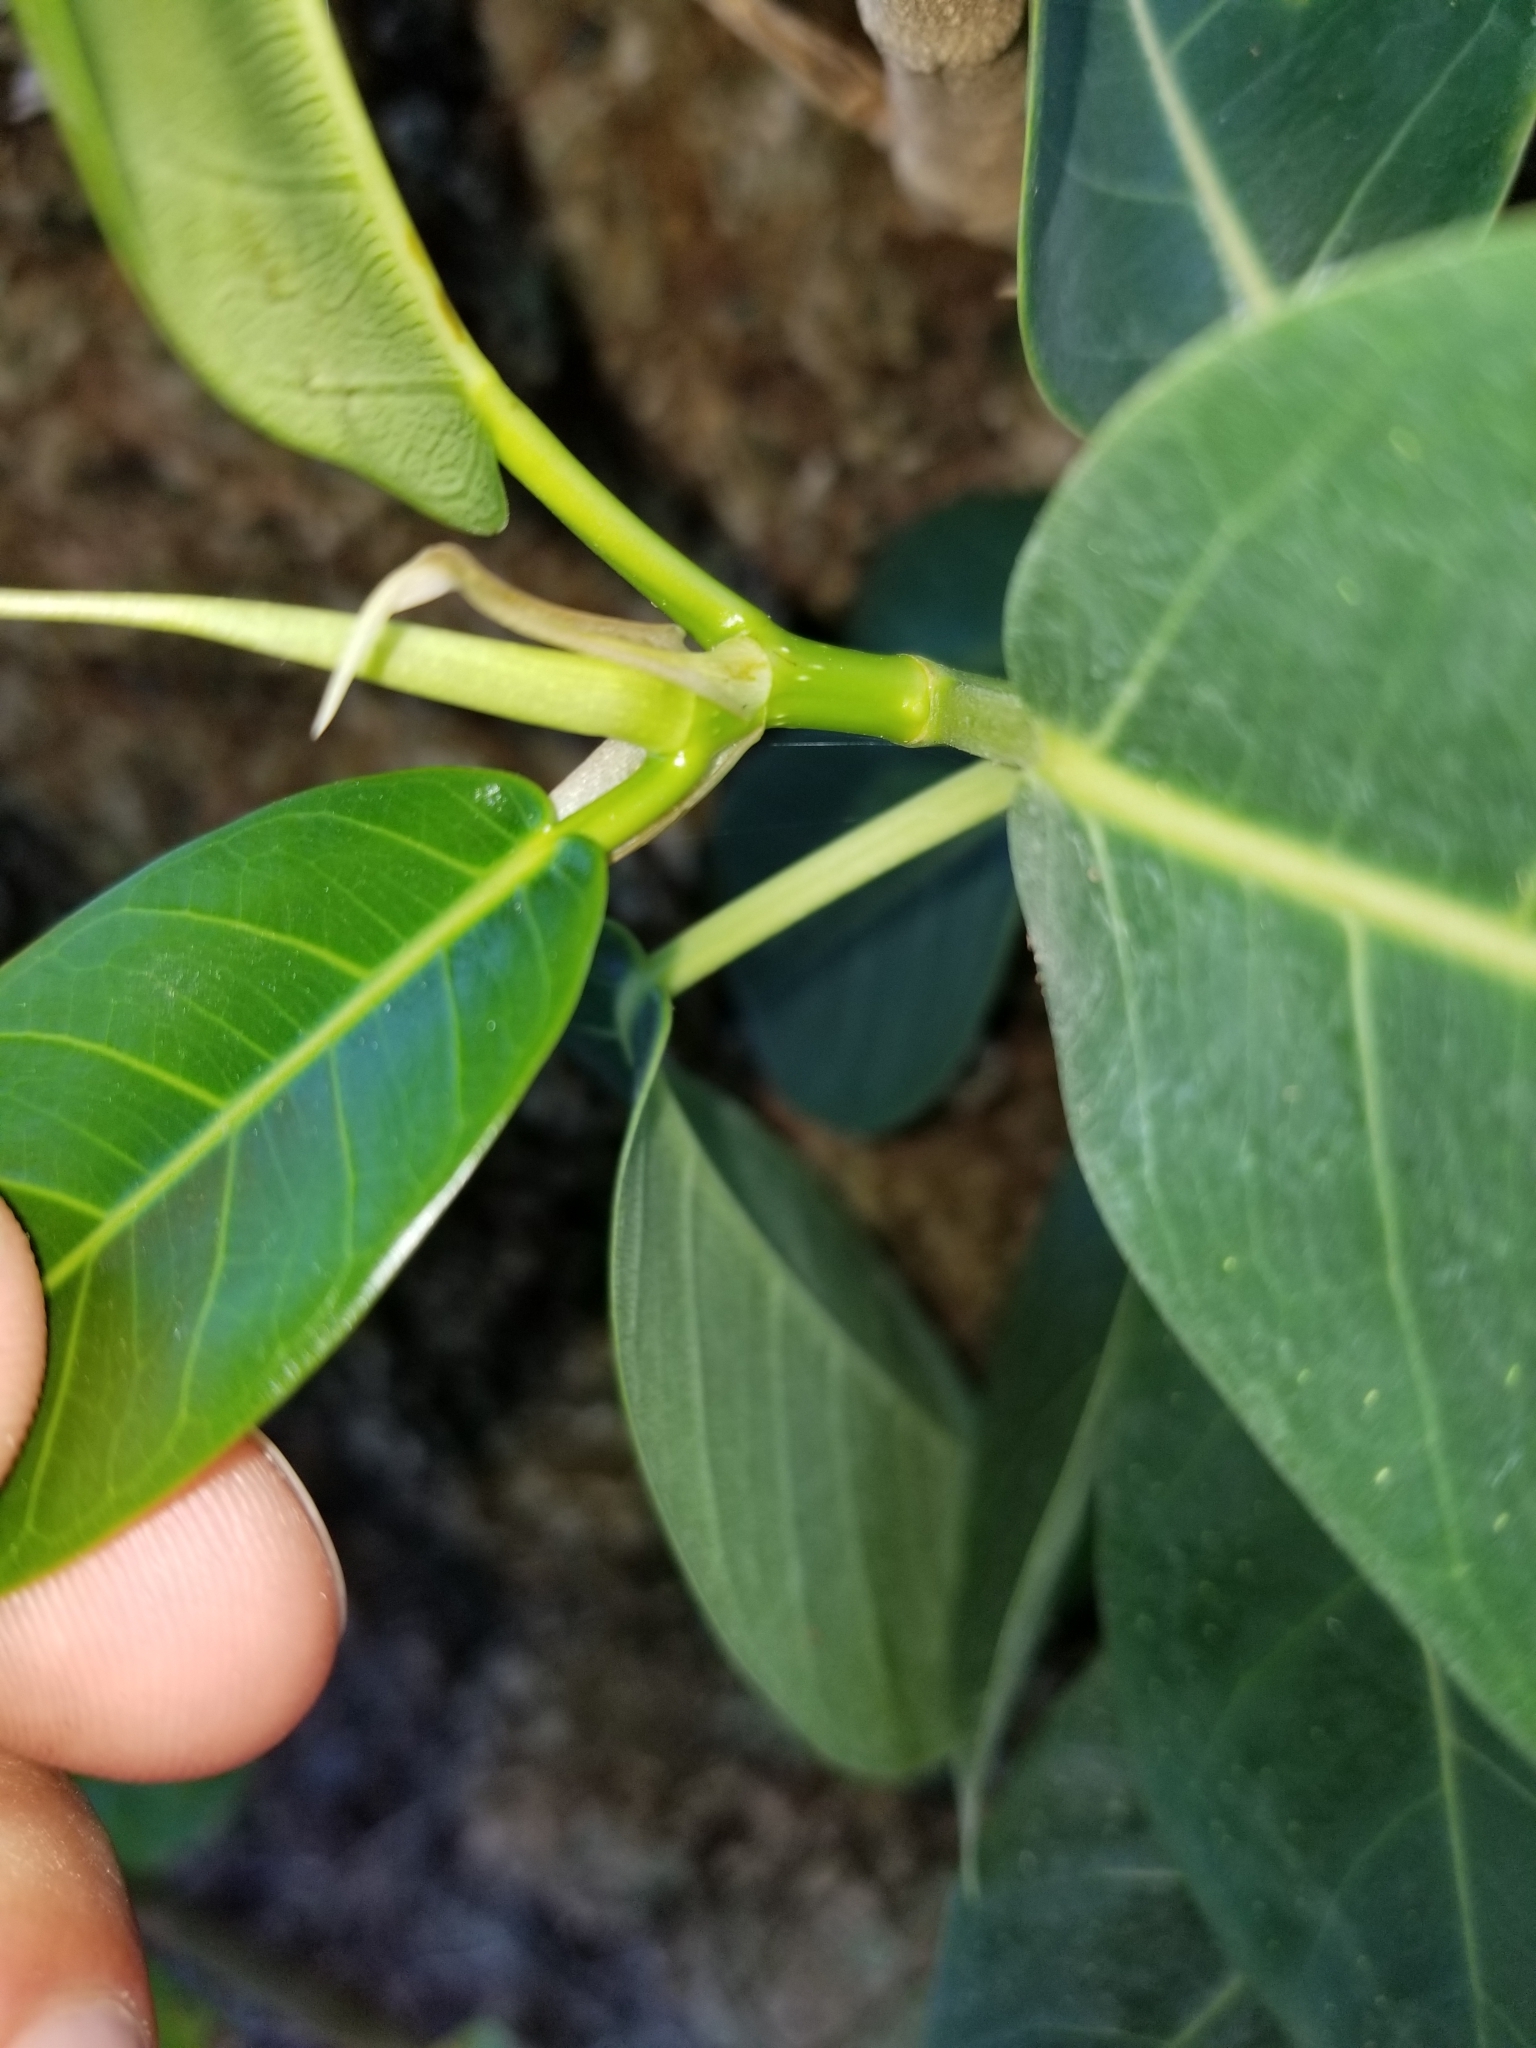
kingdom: Plantae
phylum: Tracheophyta
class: Magnoliopsida
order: Rosales
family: Moraceae
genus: Ficus
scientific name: Ficus aurea
